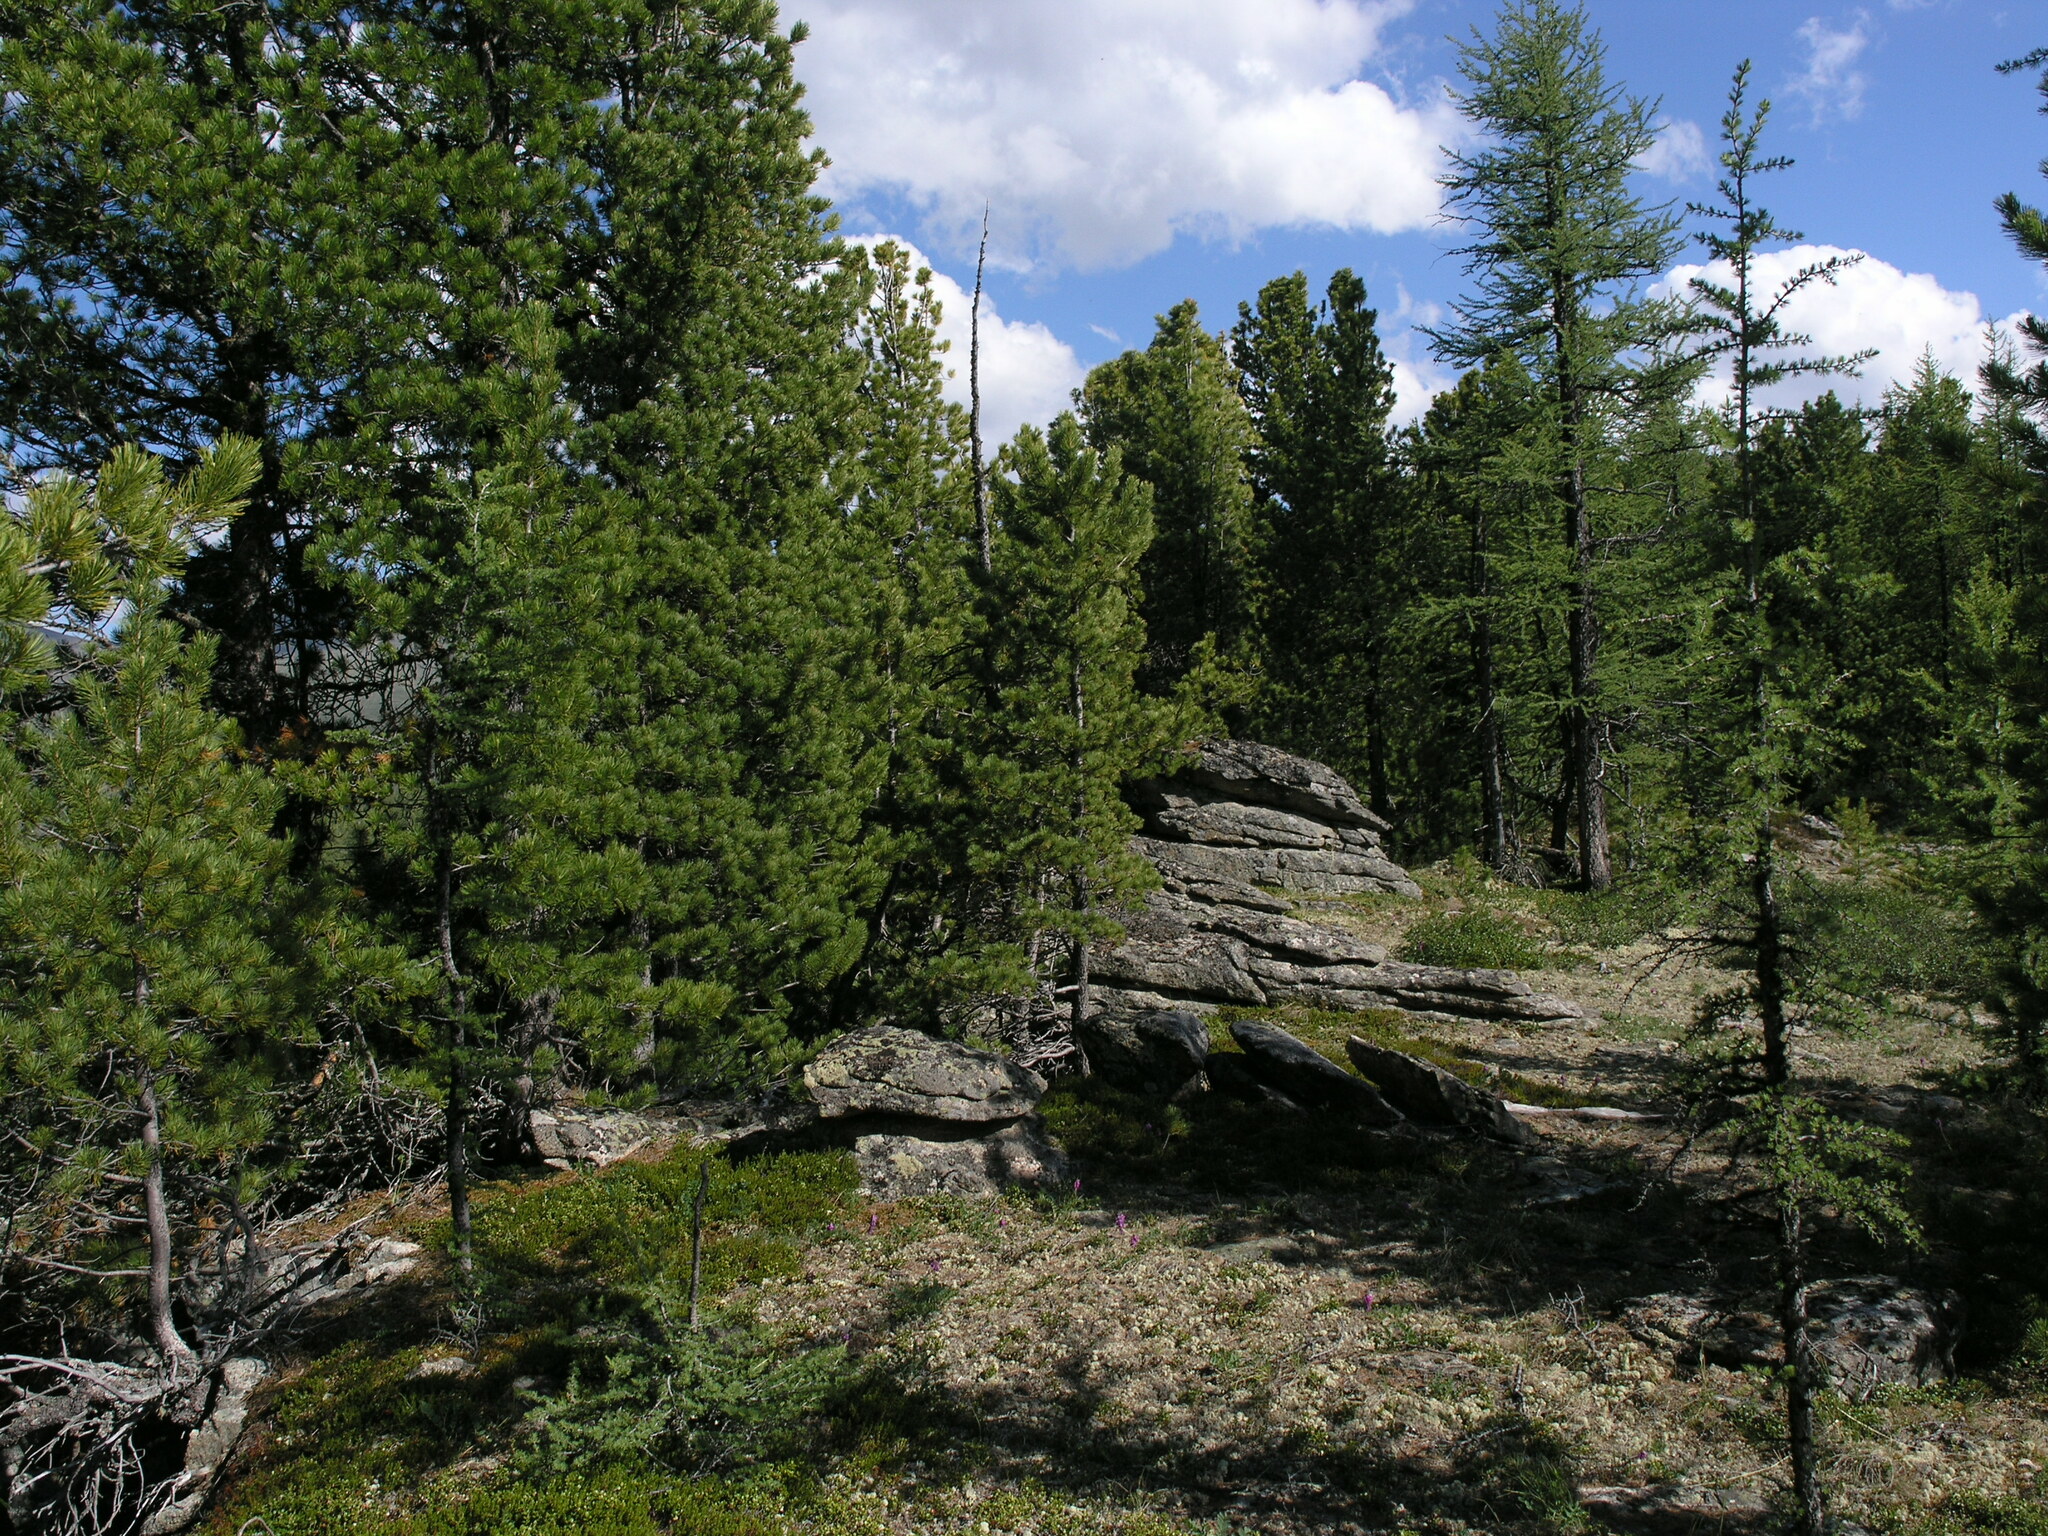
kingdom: Plantae
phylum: Tracheophyta
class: Pinopsida
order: Pinales
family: Pinaceae
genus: Pinus
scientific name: Pinus sibirica
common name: Siberian pine
